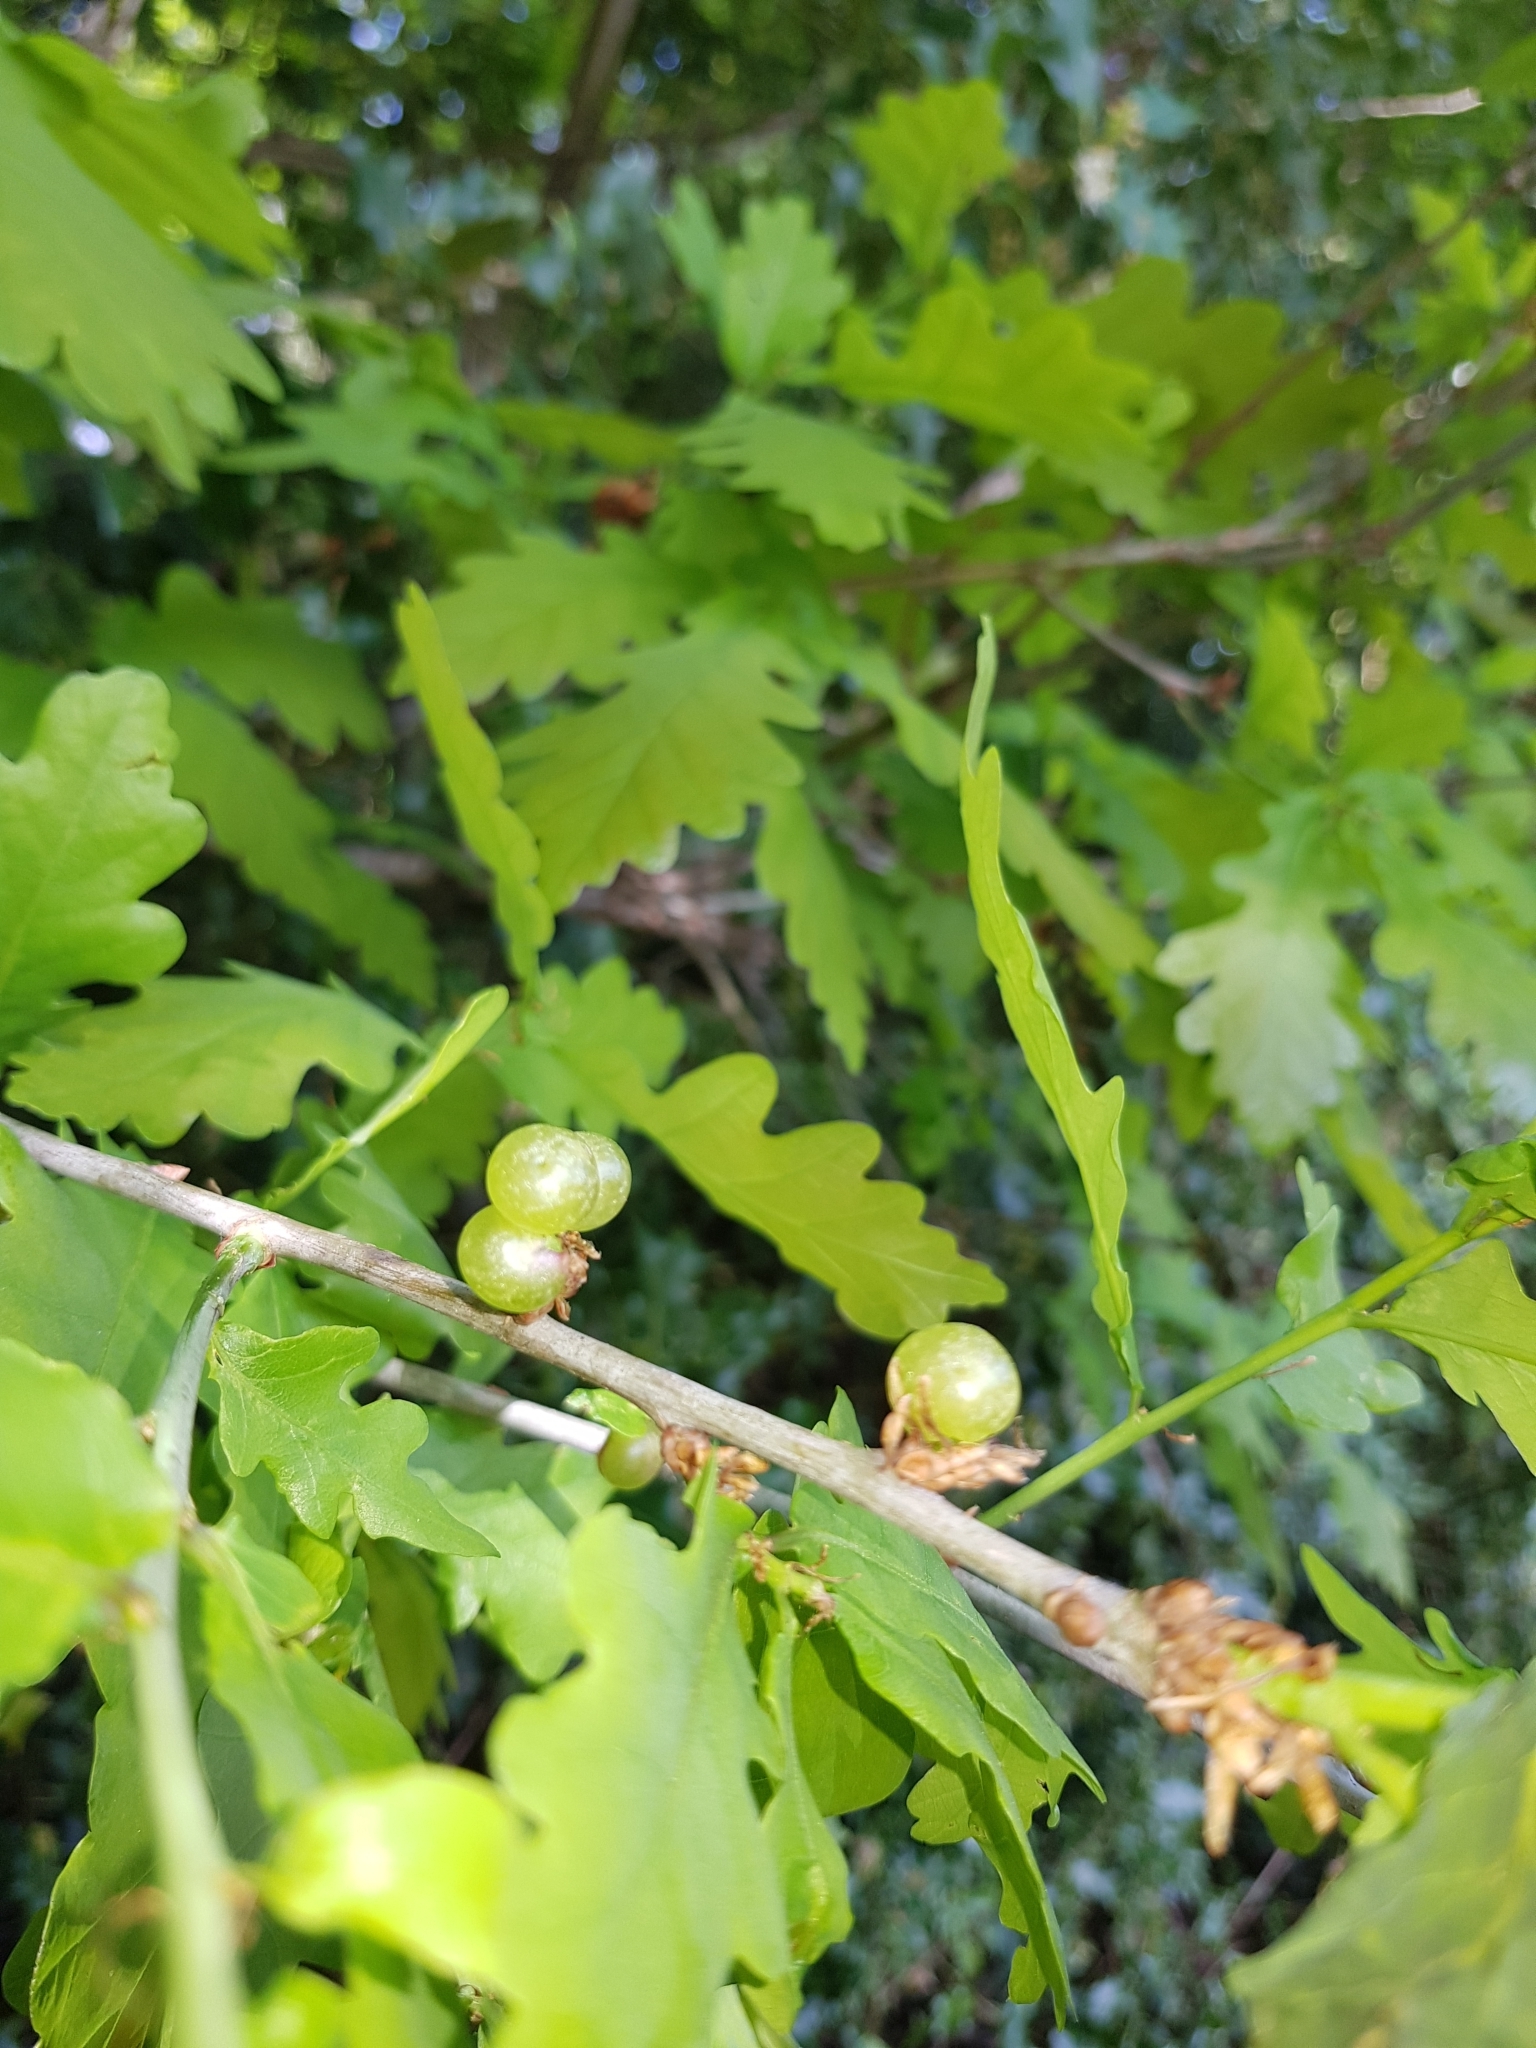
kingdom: Animalia
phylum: Arthropoda
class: Insecta
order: Hymenoptera
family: Cynipidae
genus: Neuroterus
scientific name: Neuroterus quercusbaccarum
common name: Common spangle gall
